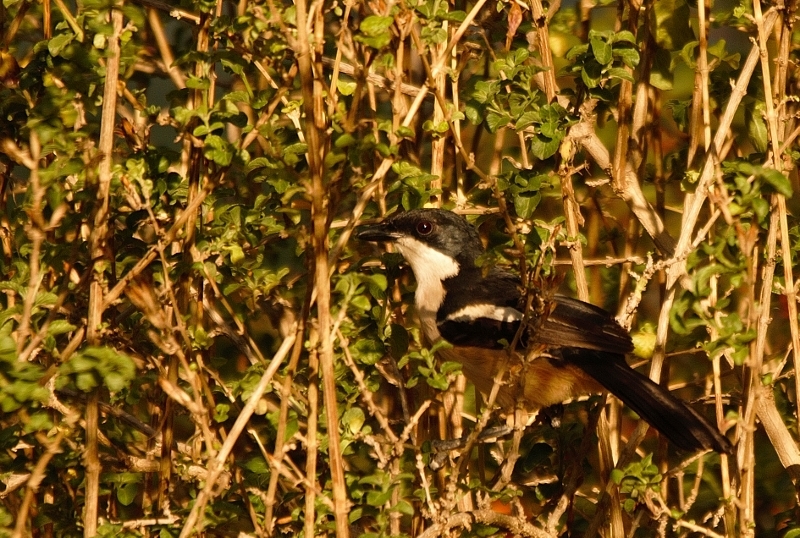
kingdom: Animalia
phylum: Chordata
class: Aves
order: Passeriformes
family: Malaconotidae
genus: Laniarius
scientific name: Laniarius major
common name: Tropical boubou
